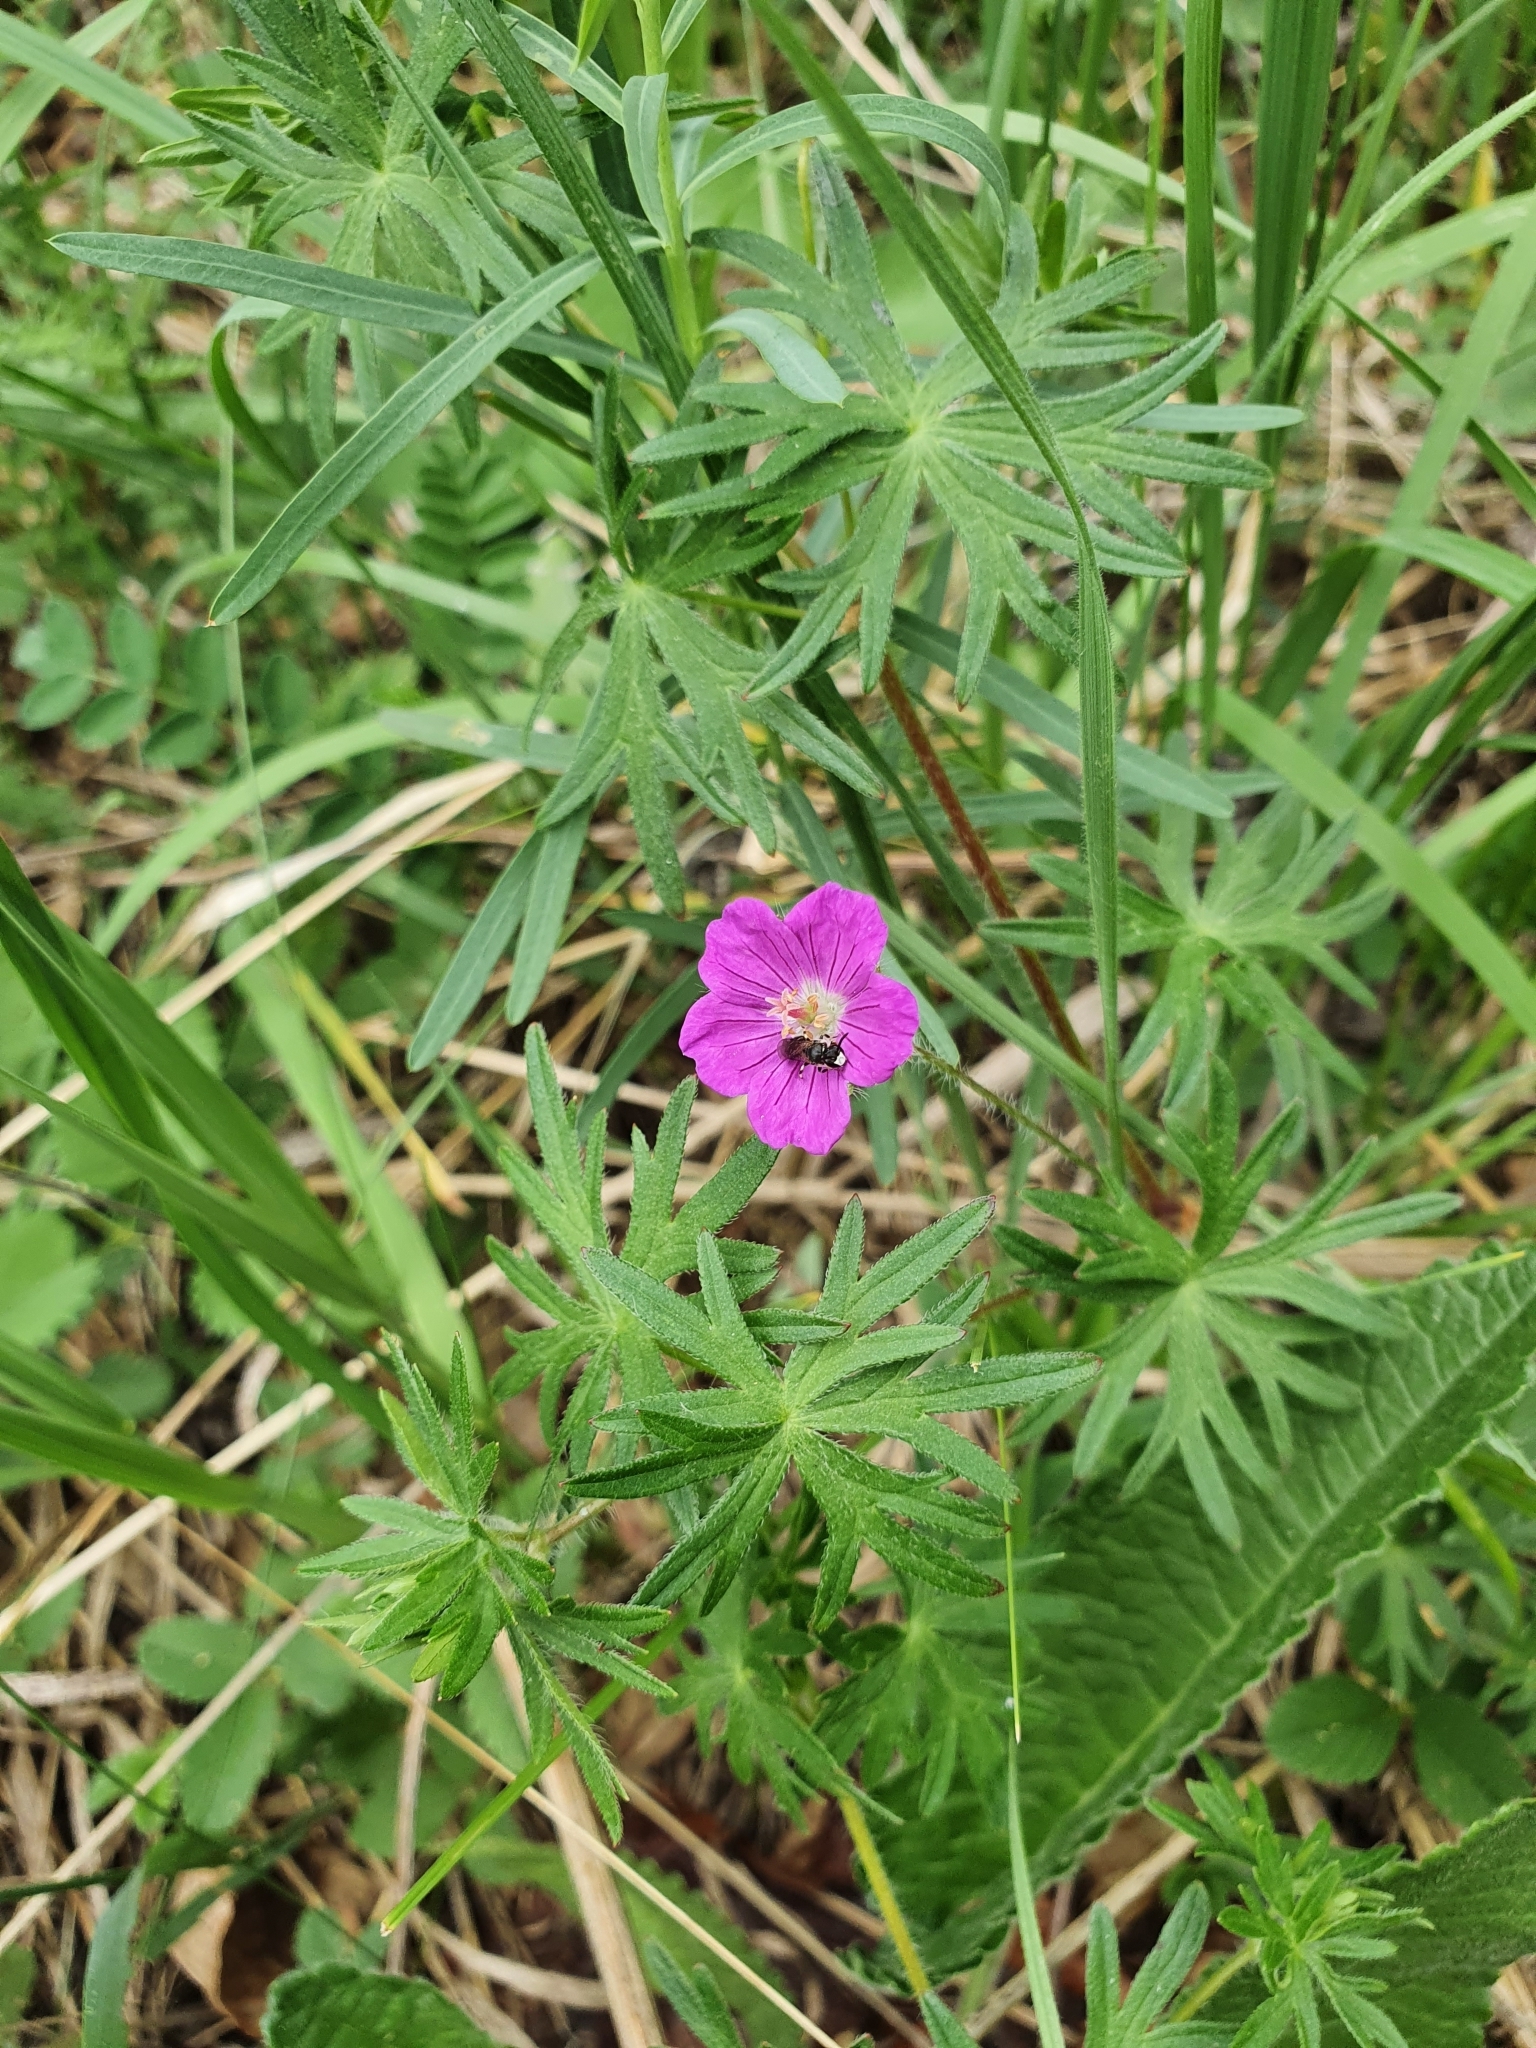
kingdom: Plantae
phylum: Tracheophyta
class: Magnoliopsida
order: Geraniales
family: Geraniaceae
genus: Geranium
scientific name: Geranium sanguineum
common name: Bloody crane's-bill
